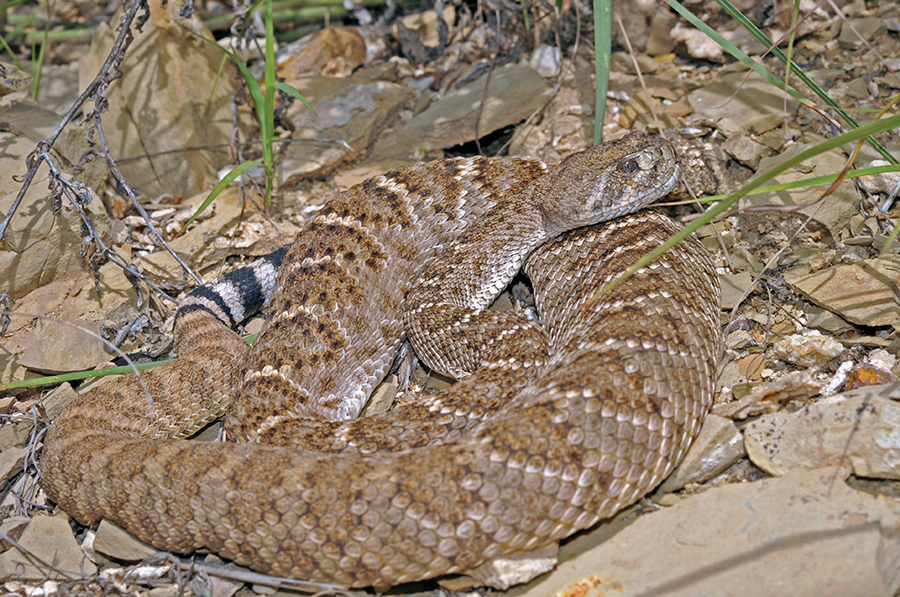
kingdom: Animalia
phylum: Chordata
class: Squamata
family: Viperidae
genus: Crotalus
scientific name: Crotalus atrox
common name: Western diamond-backed rattlesnake
